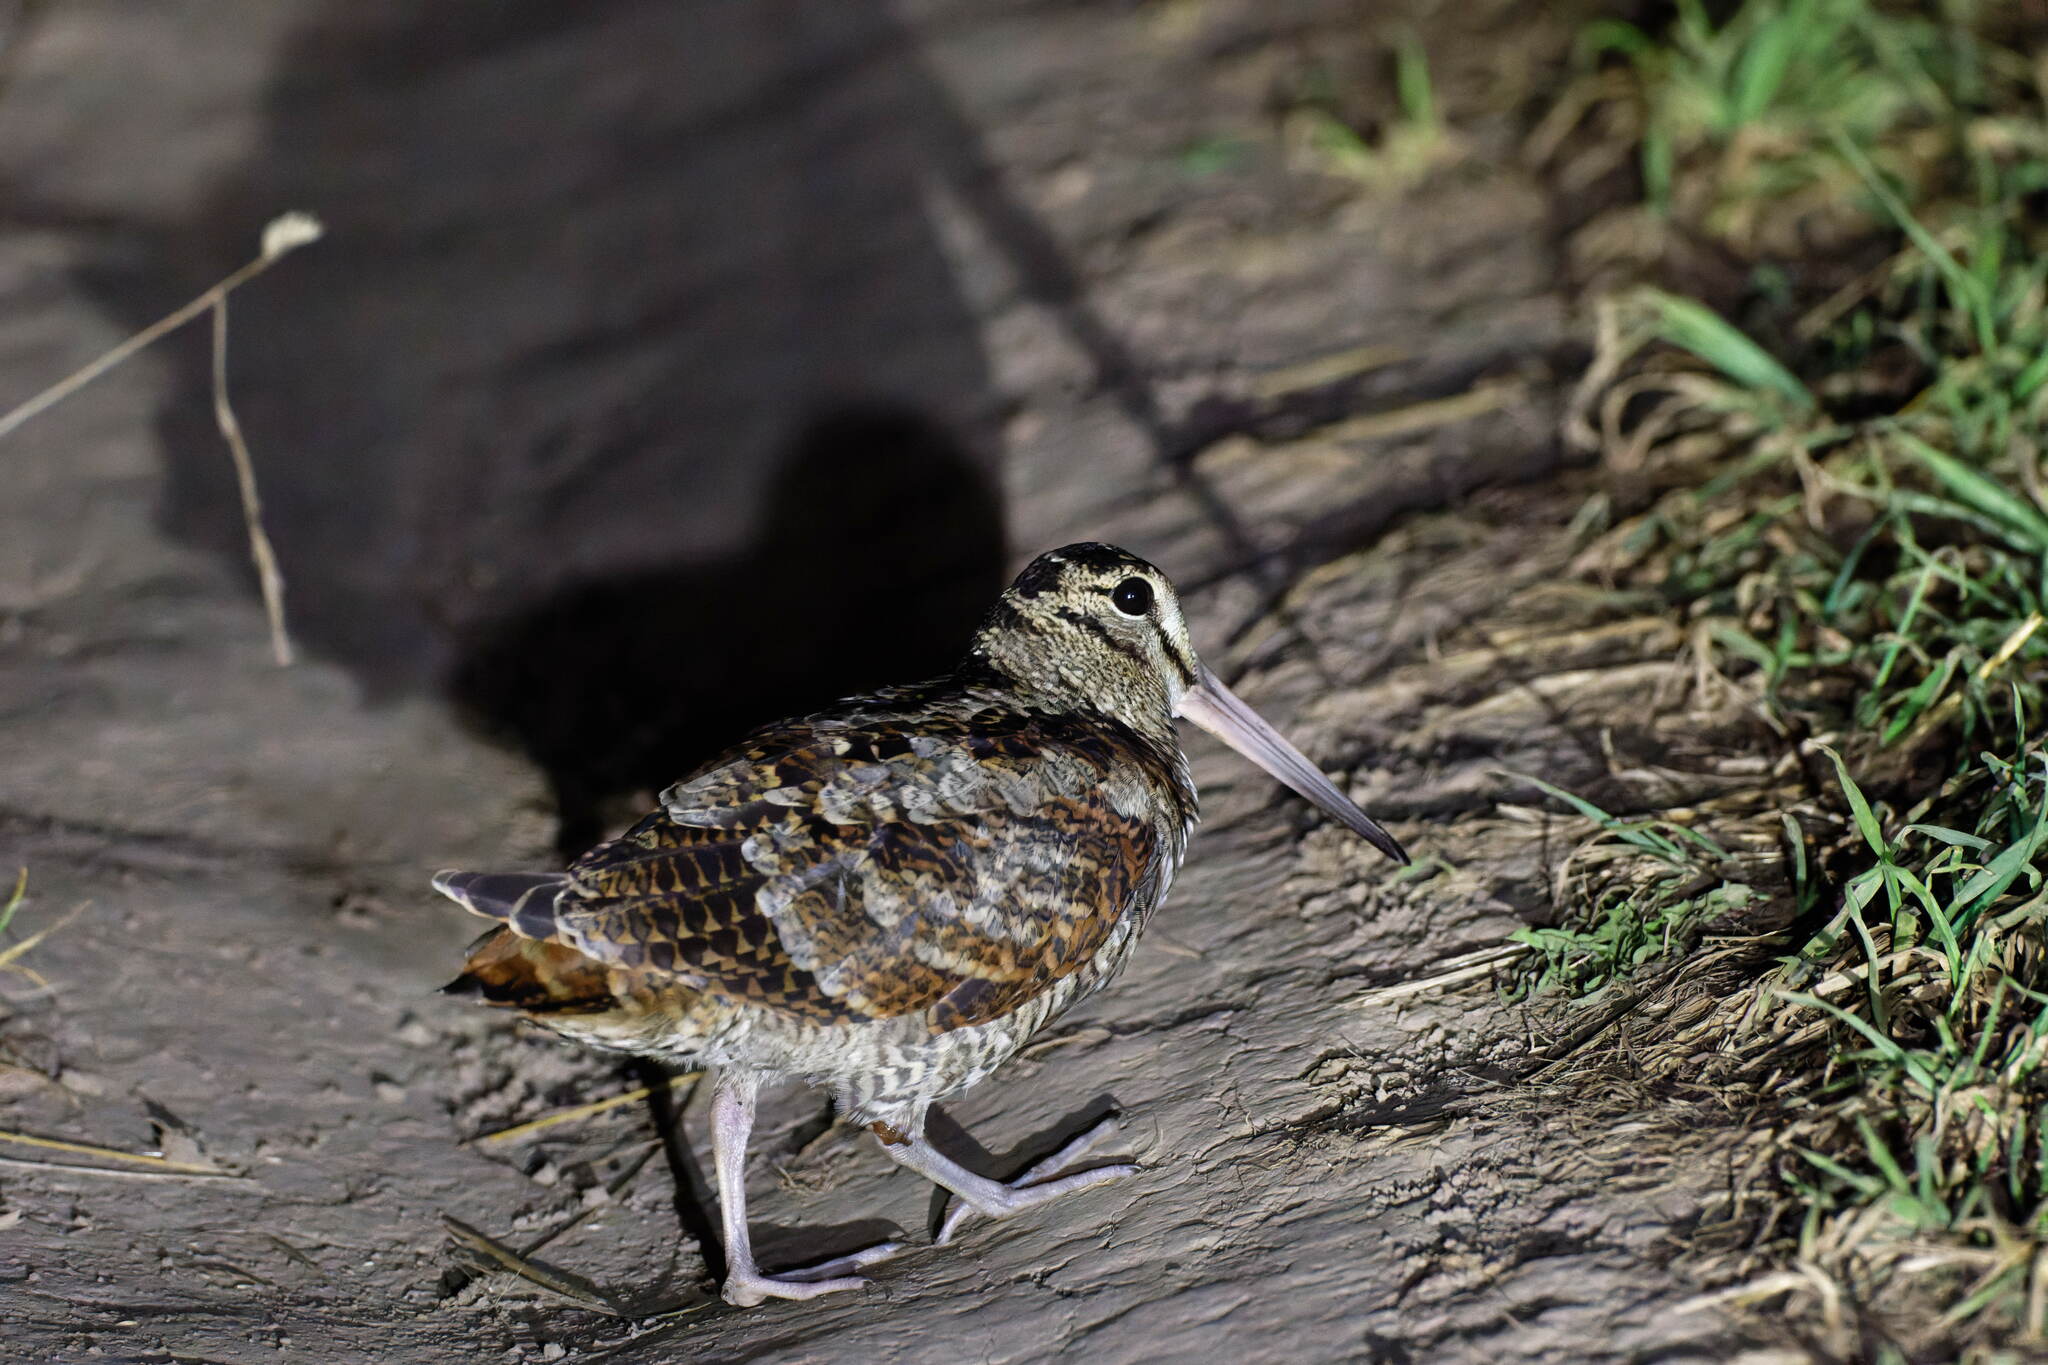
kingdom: Animalia
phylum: Chordata
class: Aves
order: Charadriiformes
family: Scolopacidae
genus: Scolopax
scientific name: Scolopax rusticola
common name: Eurasian woodcock
